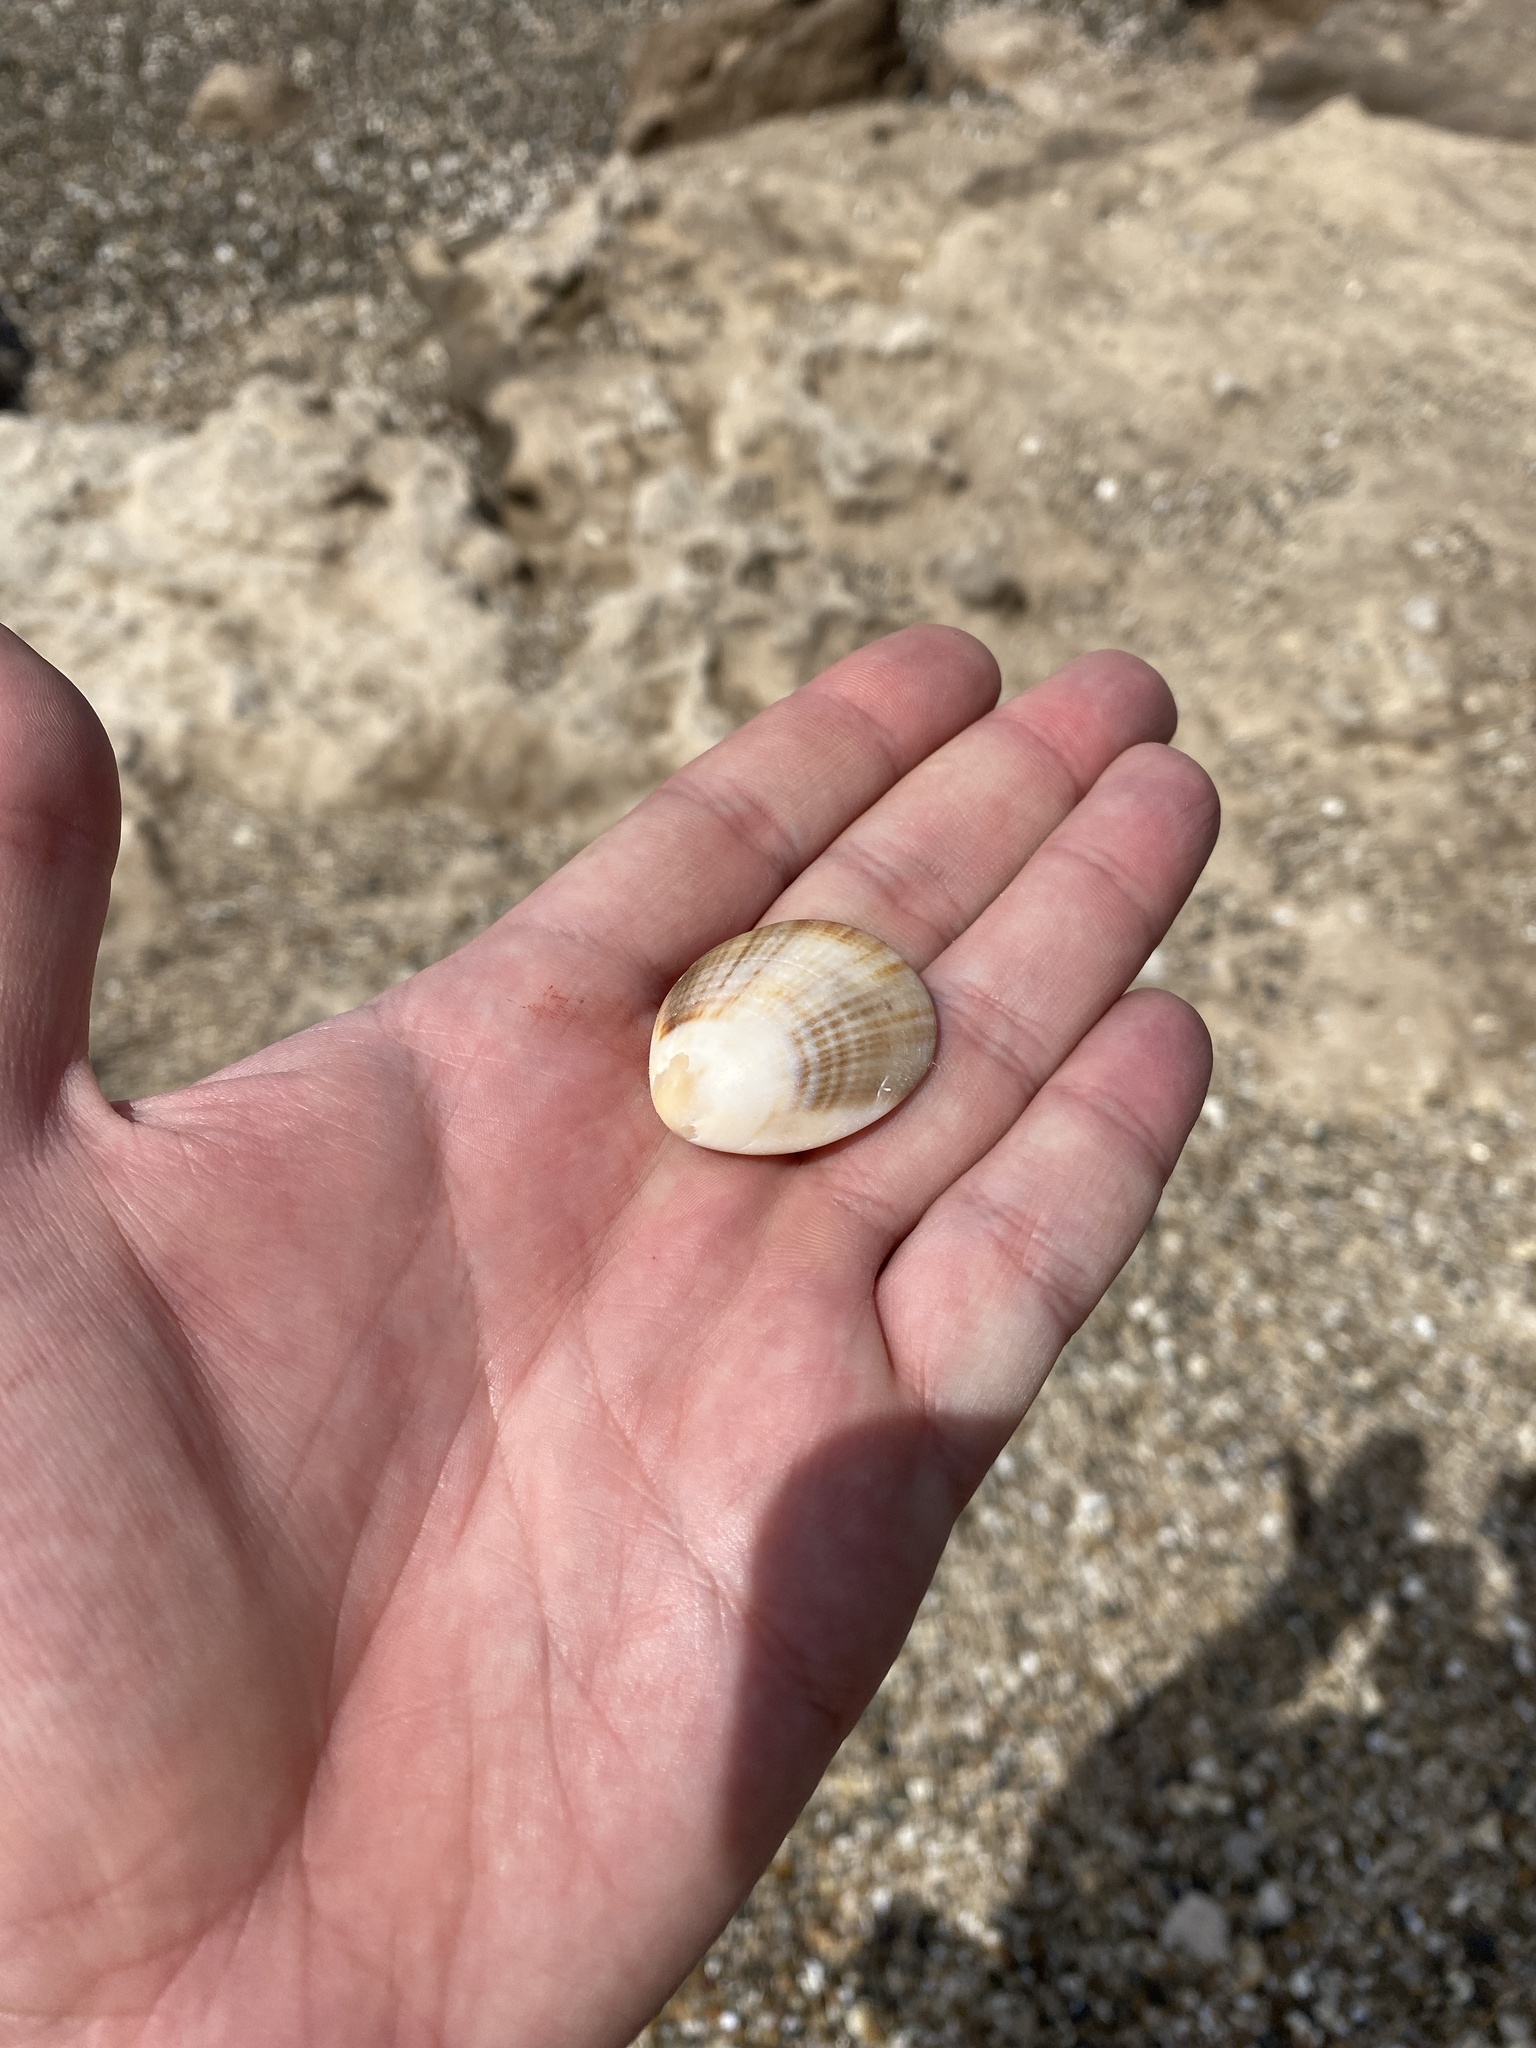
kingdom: Animalia
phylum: Mollusca
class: Bivalvia
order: Arcida
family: Glycymerididae
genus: Glycymeris
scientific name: Glycymeris longior
